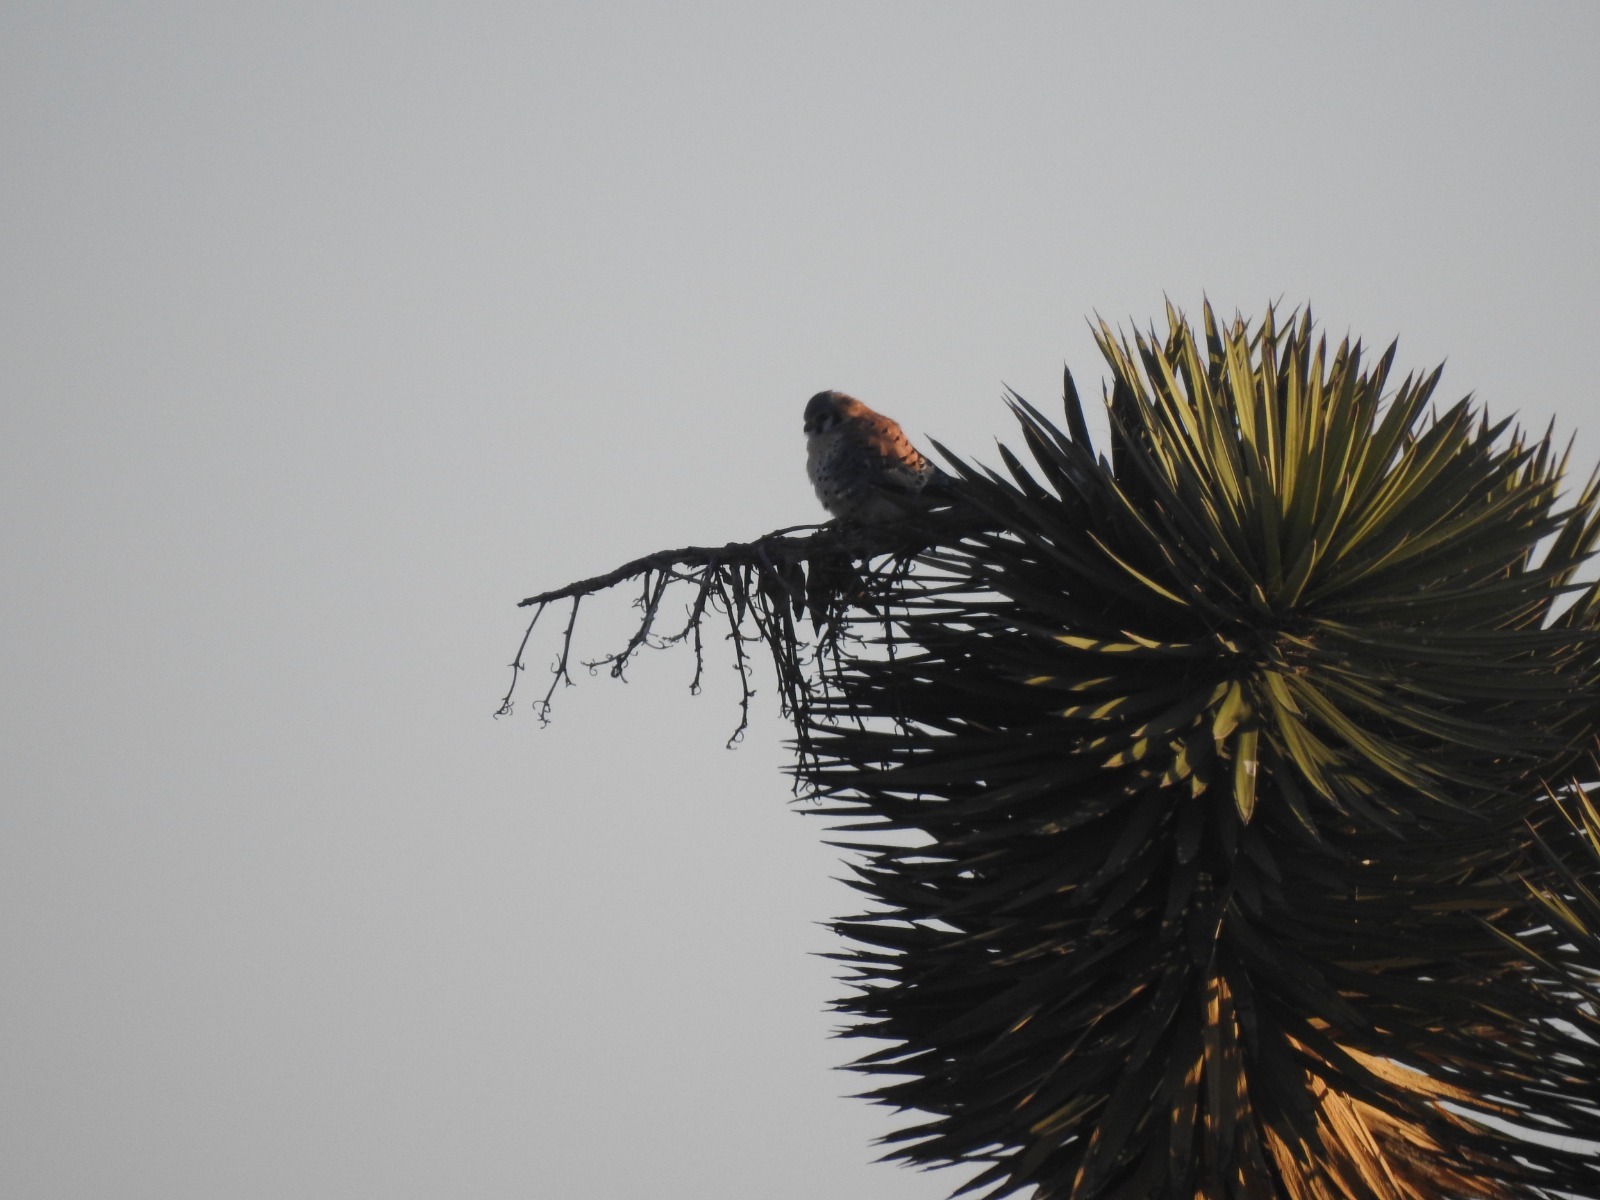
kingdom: Animalia
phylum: Chordata
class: Aves
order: Falconiformes
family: Falconidae
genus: Falco
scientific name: Falco sparverius
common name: American kestrel
